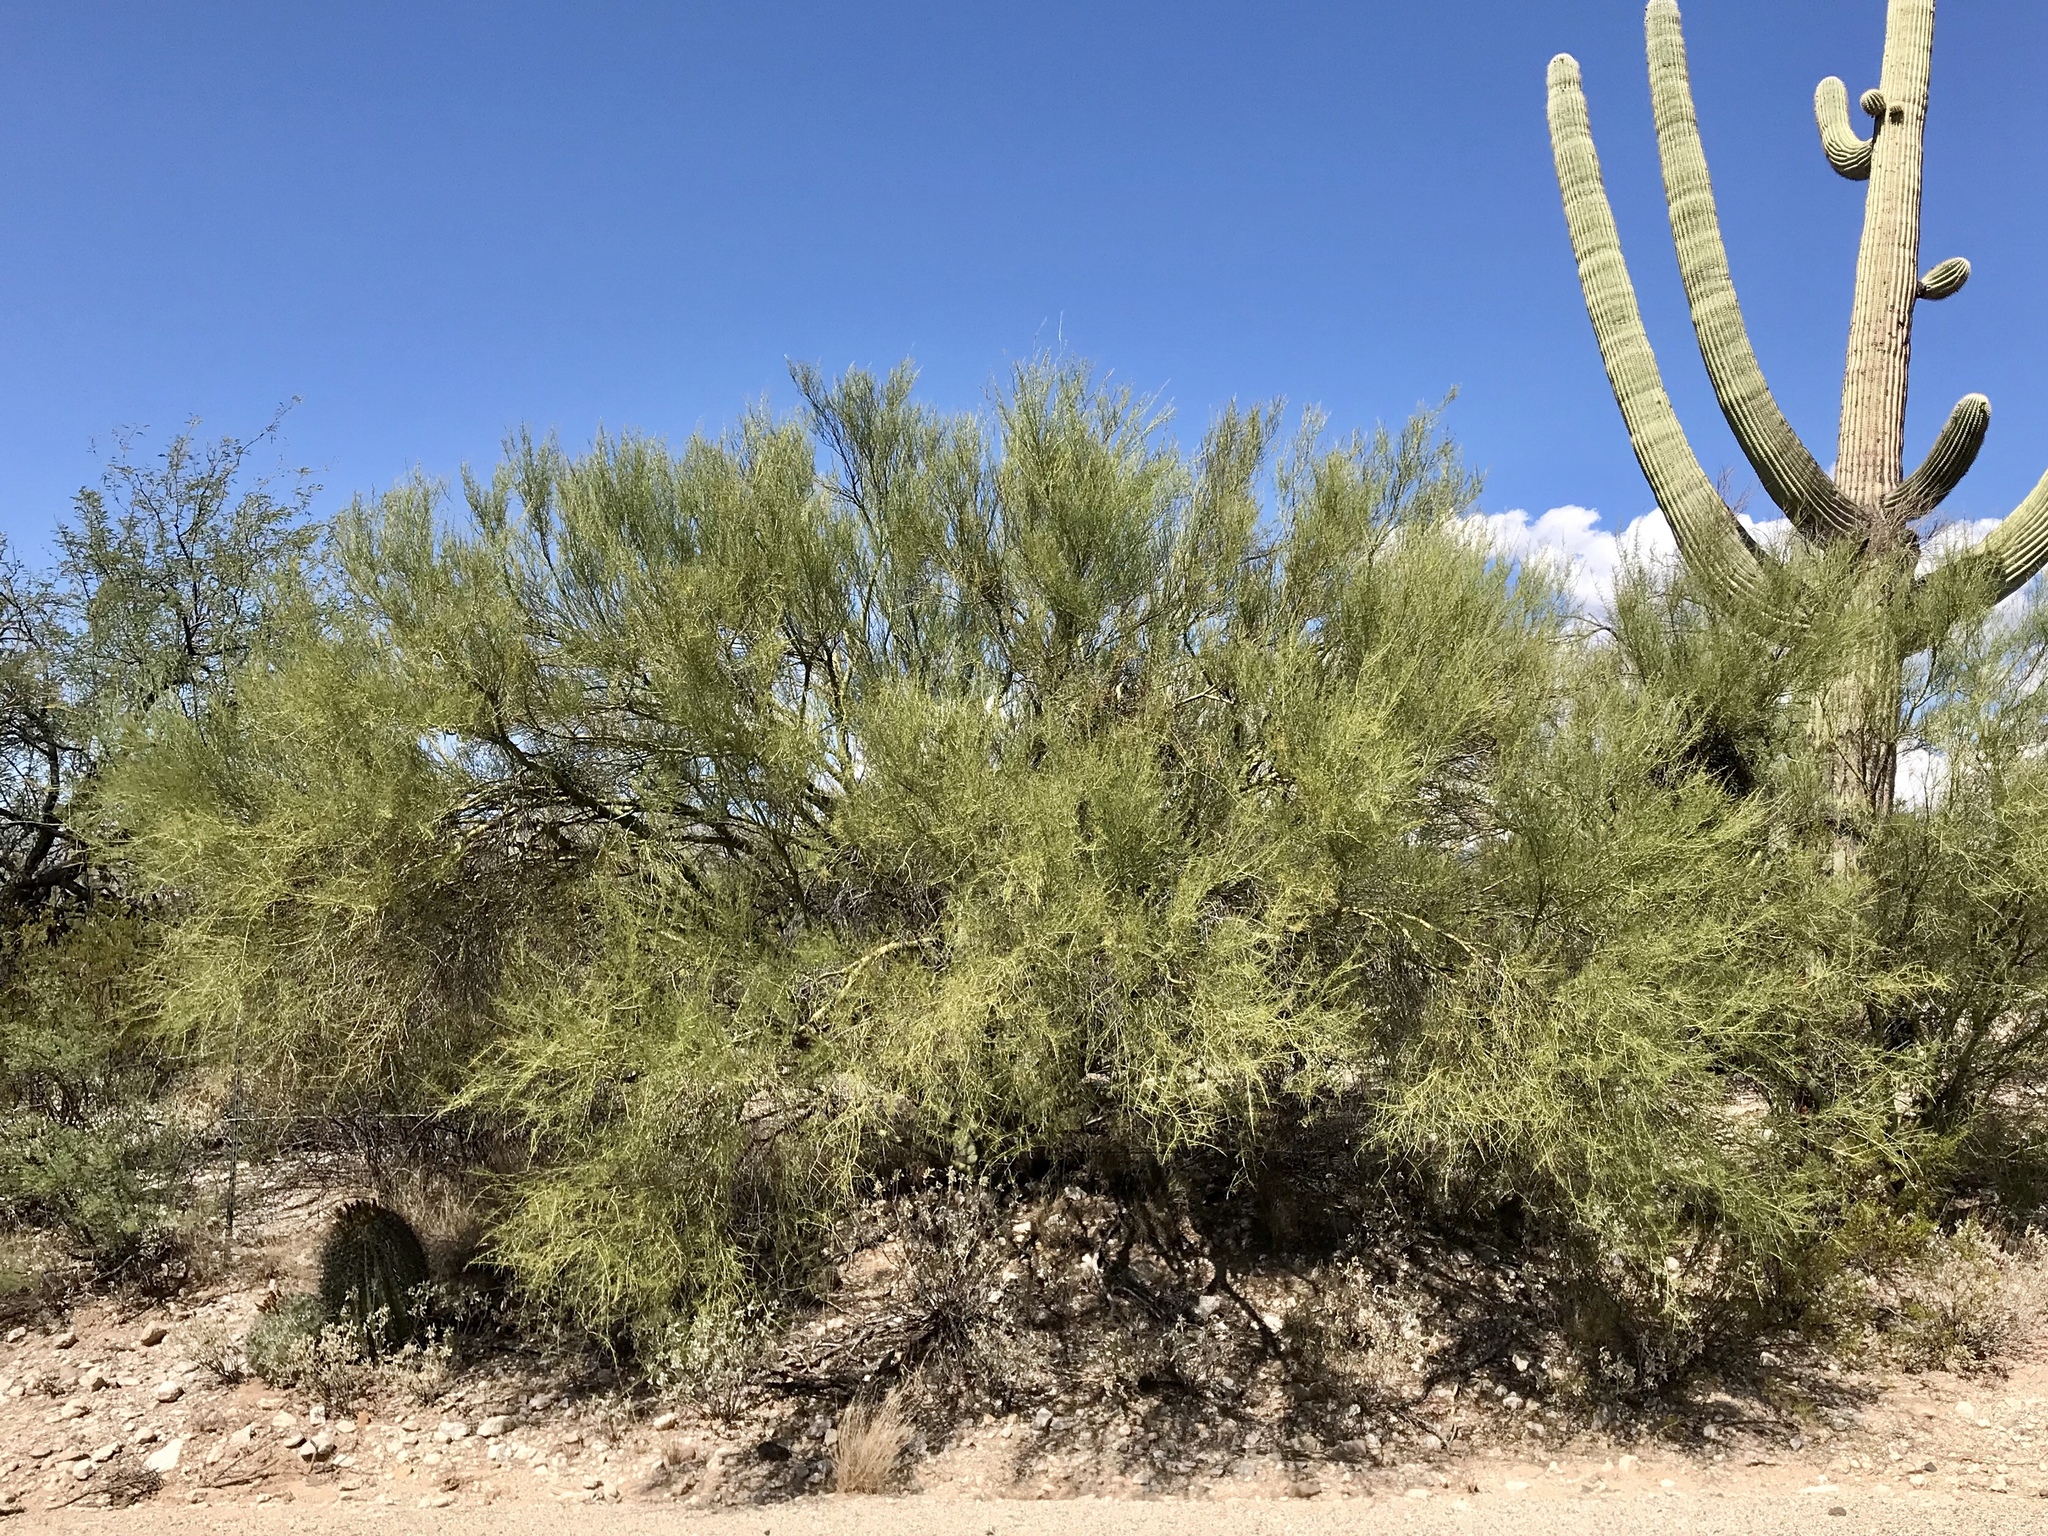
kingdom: Plantae
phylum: Tracheophyta
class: Magnoliopsida
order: Fabales
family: Fabaceae
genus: Parkinsonia
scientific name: Parkinsonia microphylla
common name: Yellow paloverde
